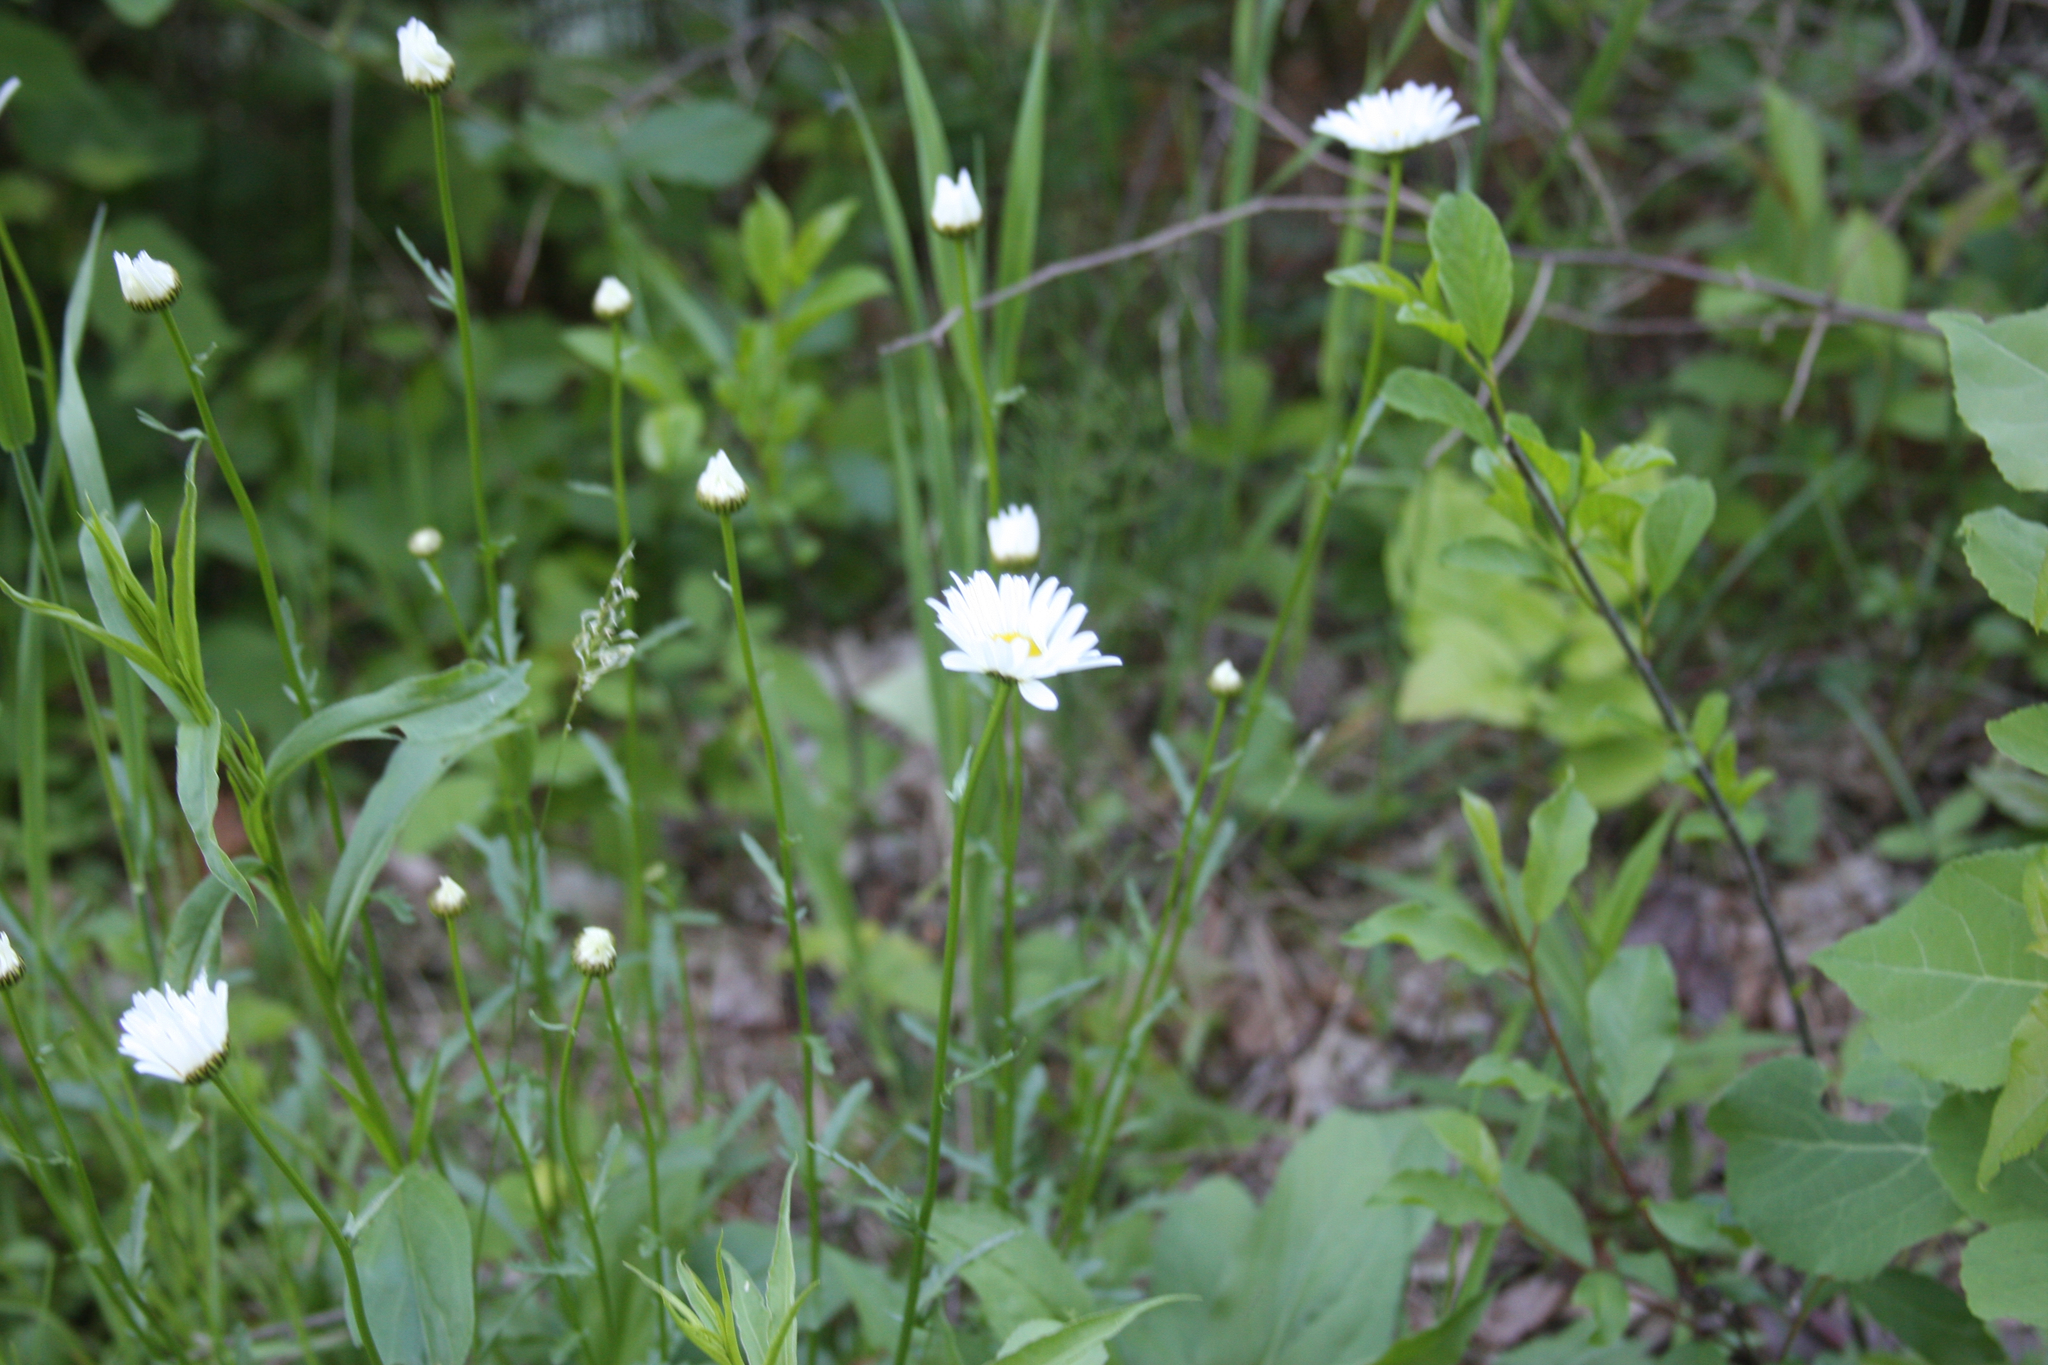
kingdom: Plantae
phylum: Tracheophyta
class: Magnoliopsida
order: Asterales
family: Asteraceae
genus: Leucanthemum
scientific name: Leucanthemum vulgare
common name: Oxeye daisy
